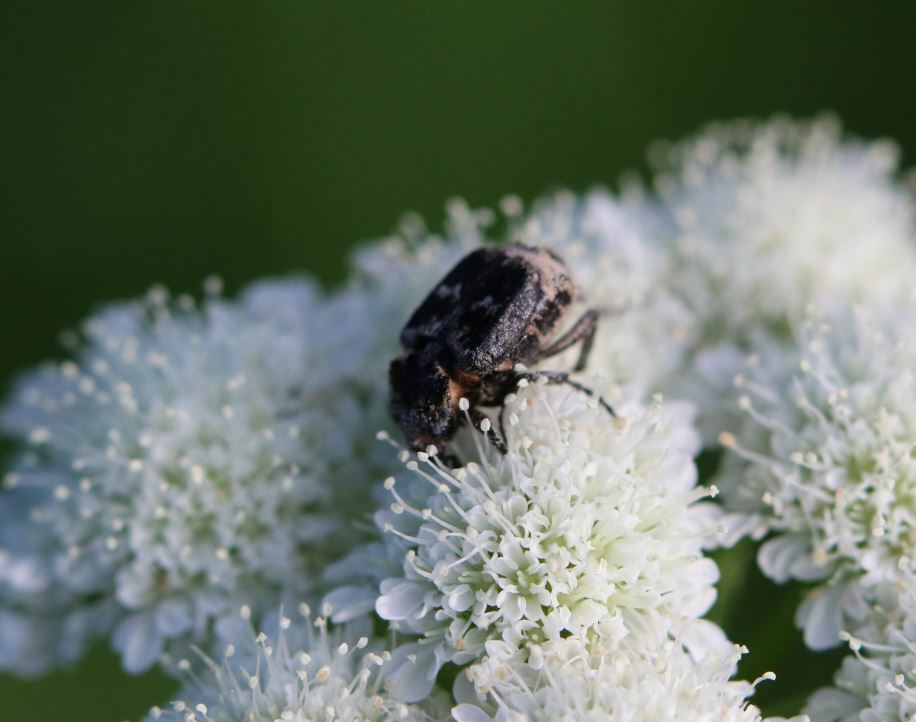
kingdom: Animalia
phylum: Arthropoda
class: Insecta
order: Coleoptera
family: Scarabaeidae
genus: Valgus
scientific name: Valgus hemipterus
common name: Bug flower chafer
